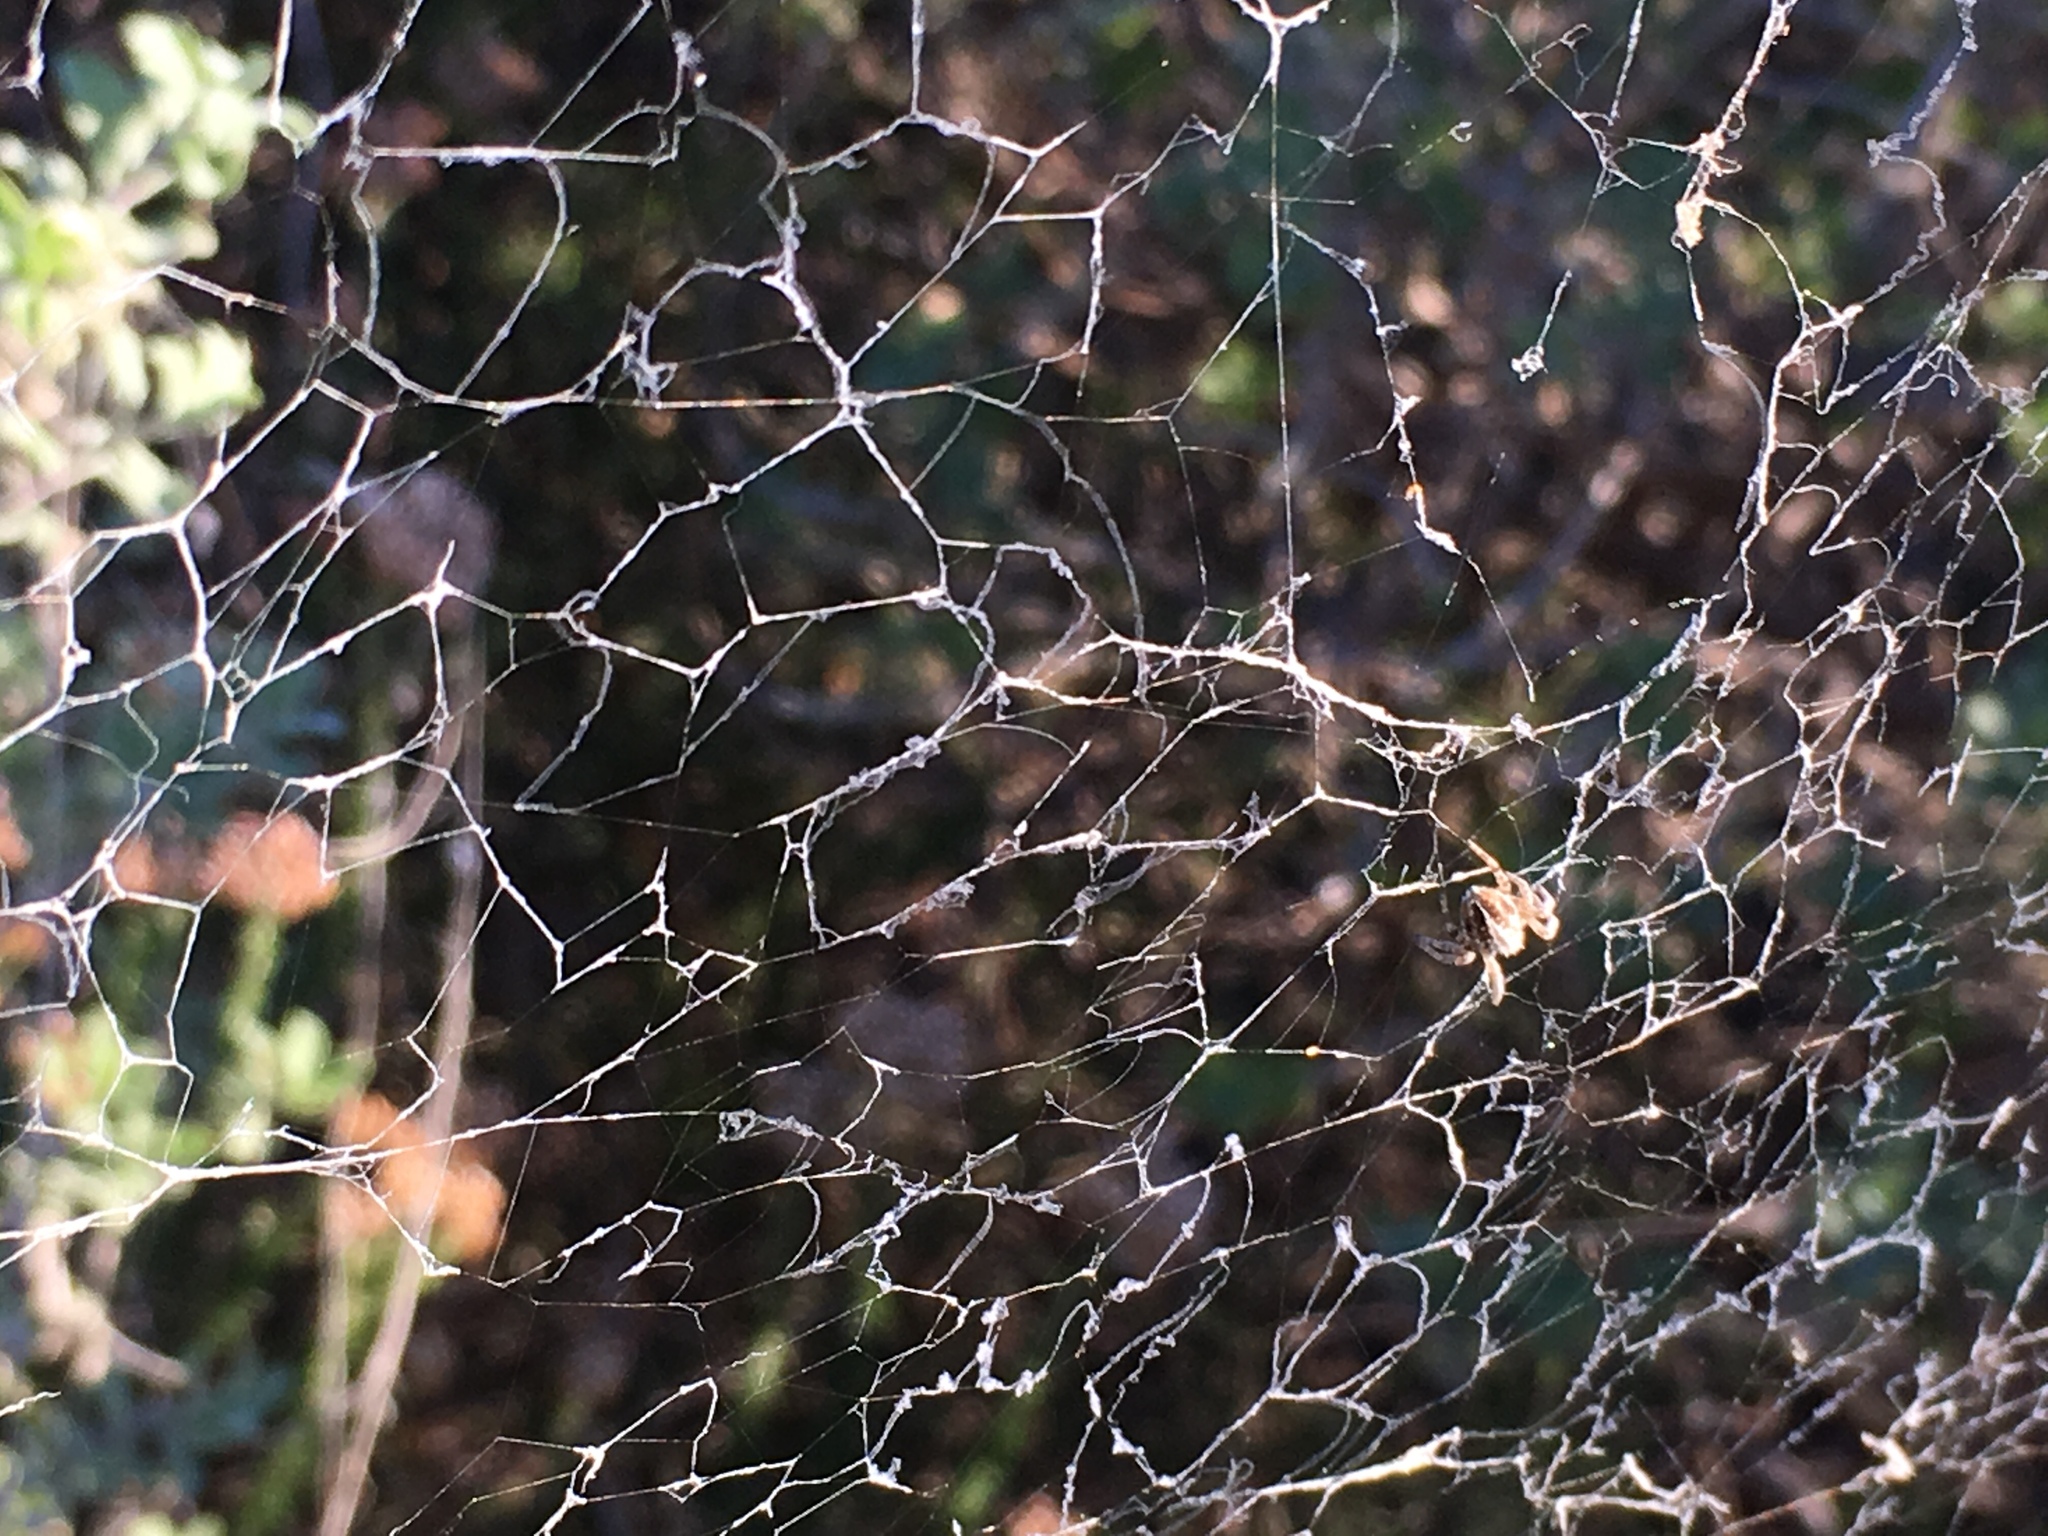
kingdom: Animalia
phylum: Arthropoda
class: Arachnida
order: Araneae
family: Eresidae
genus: Stegodyphus
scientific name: Stegodyphus dumicola
